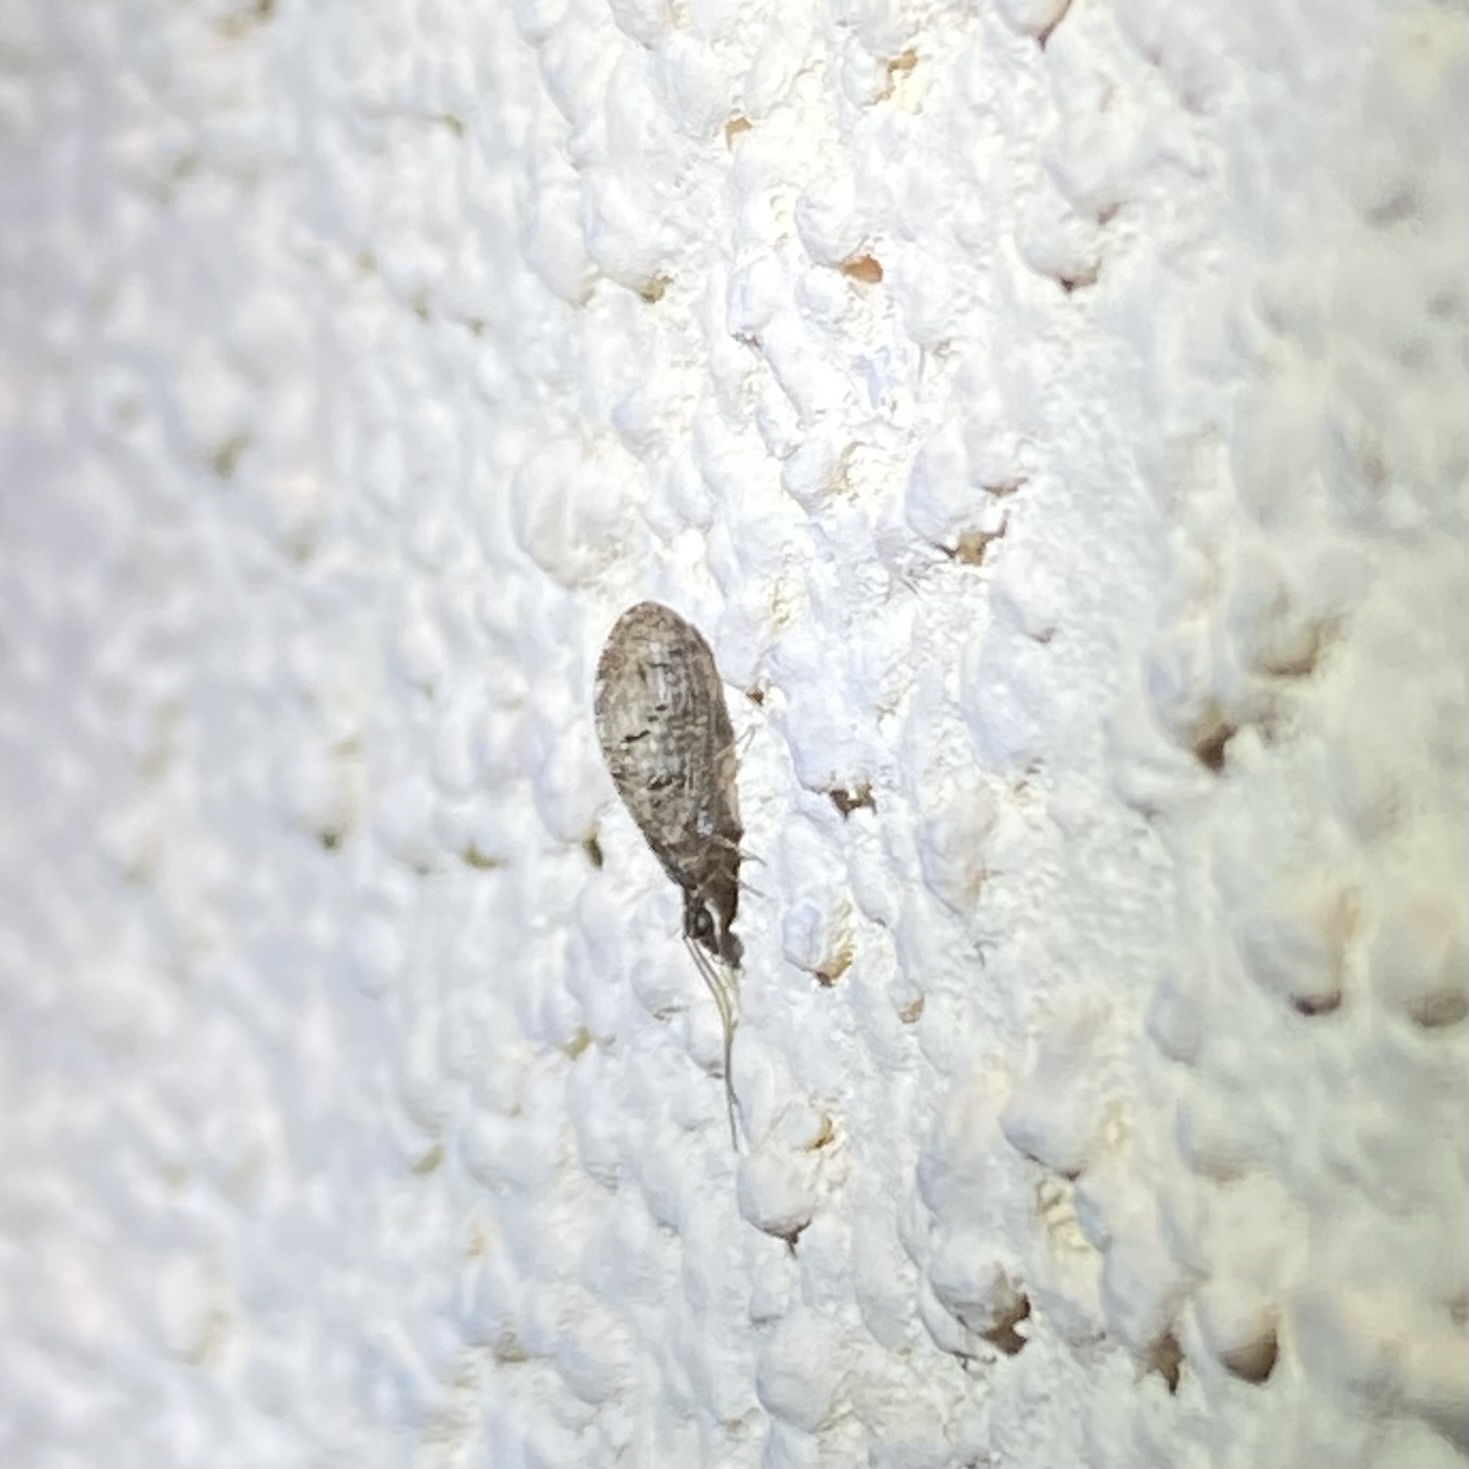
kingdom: Animalia
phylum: Arthropoda
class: Insecta
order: Neuroptera
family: Hemerobiidae
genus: Sympherobius
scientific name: Sympherobius
